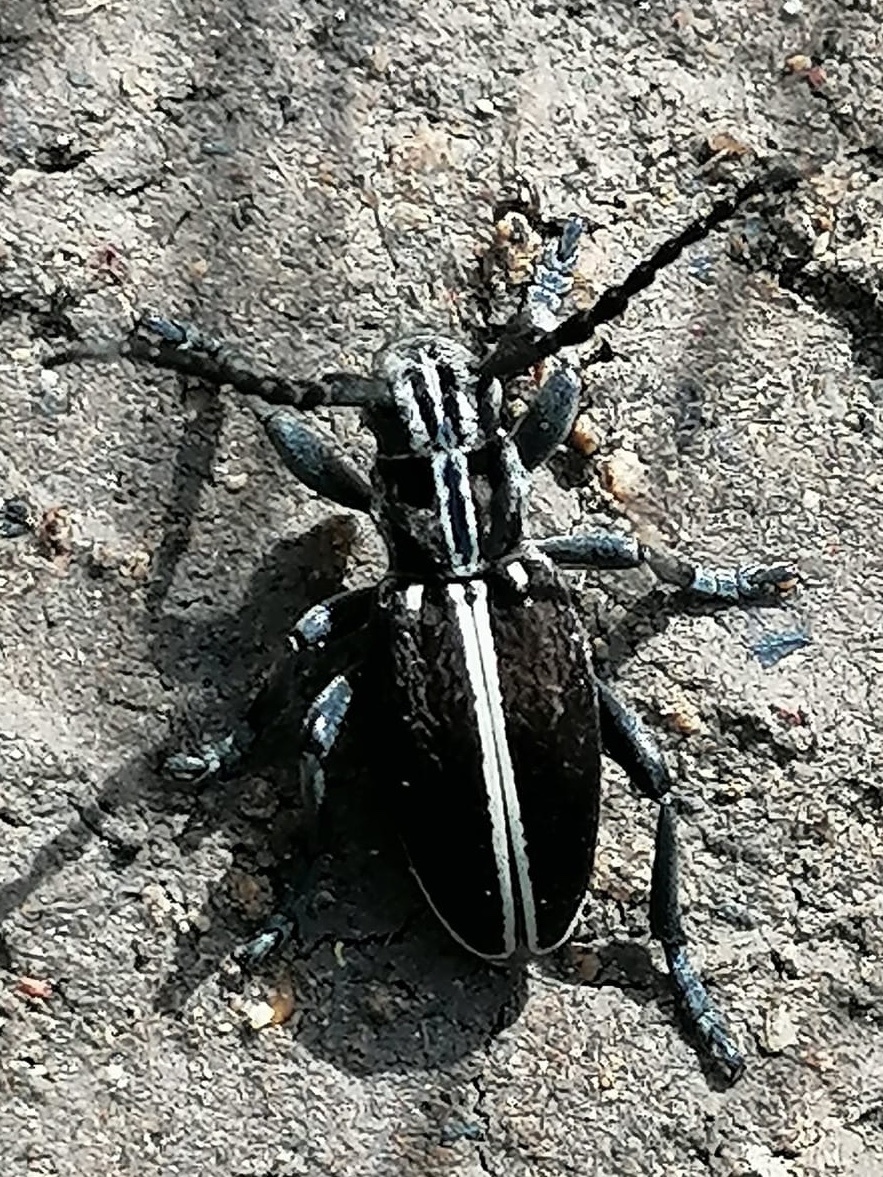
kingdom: Animalia
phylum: Arthropoda
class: Insecta
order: Coleoptera
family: Cerambycidae
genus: Iberodorcadion
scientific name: Iberodorcadion circumcinctum
